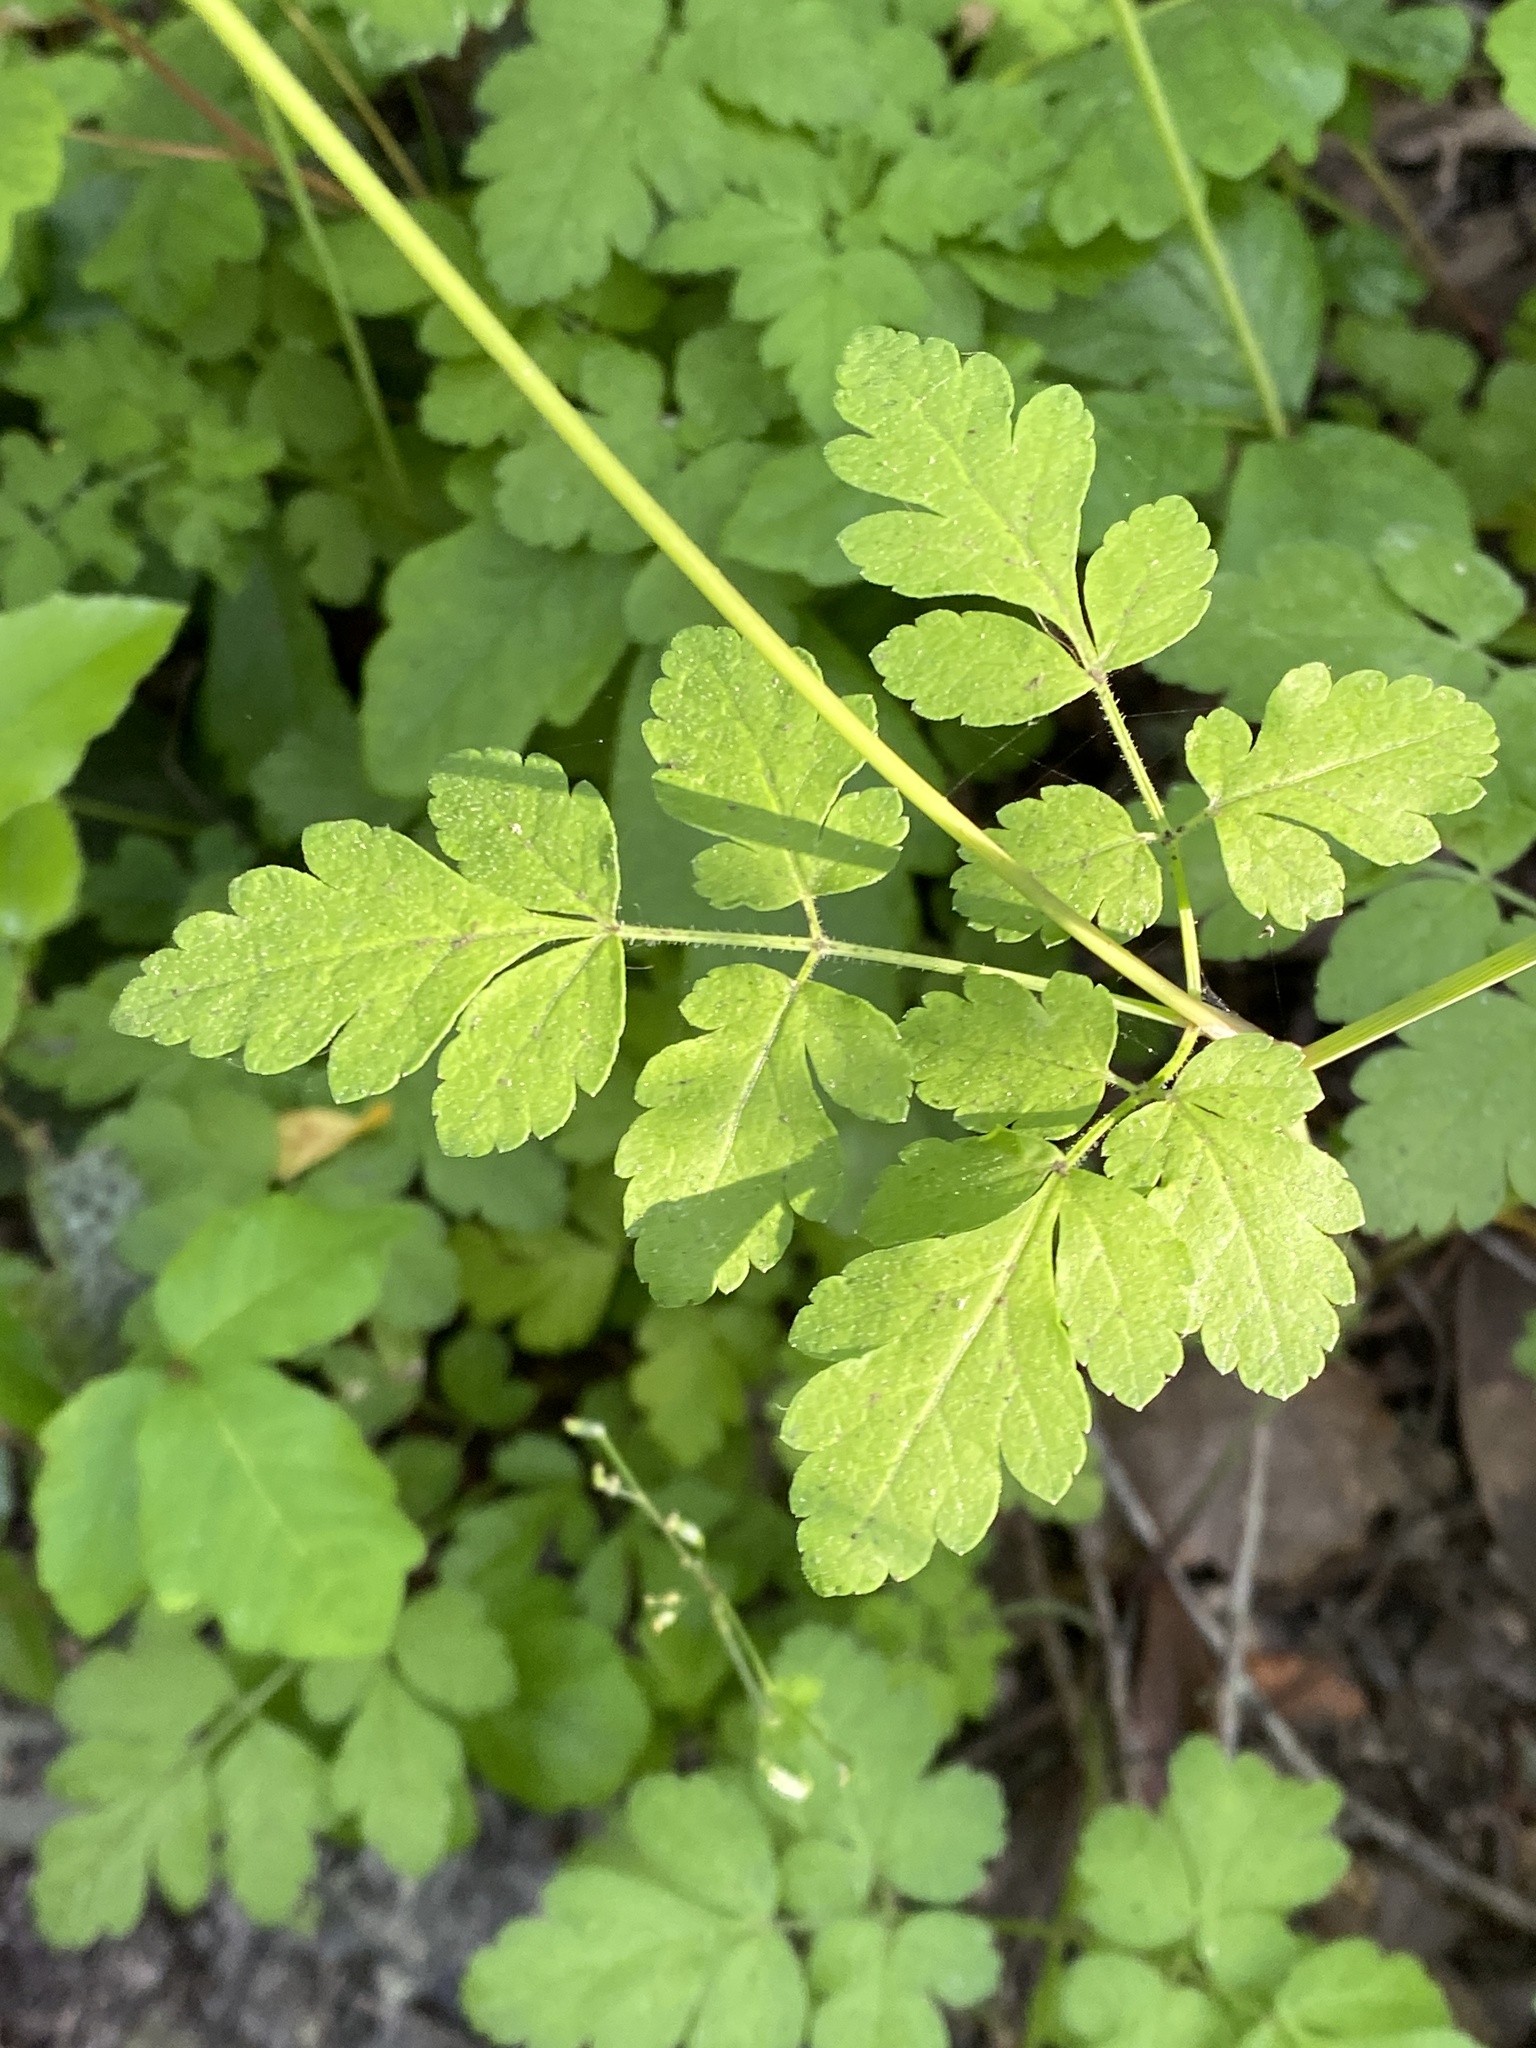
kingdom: Plantae
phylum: Tracheophyta
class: Magnoliopsida
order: Apiales
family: Apiaceae
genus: Osmorhiza
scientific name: Osmorhiza berteroi
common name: Mountain sweet cicely
